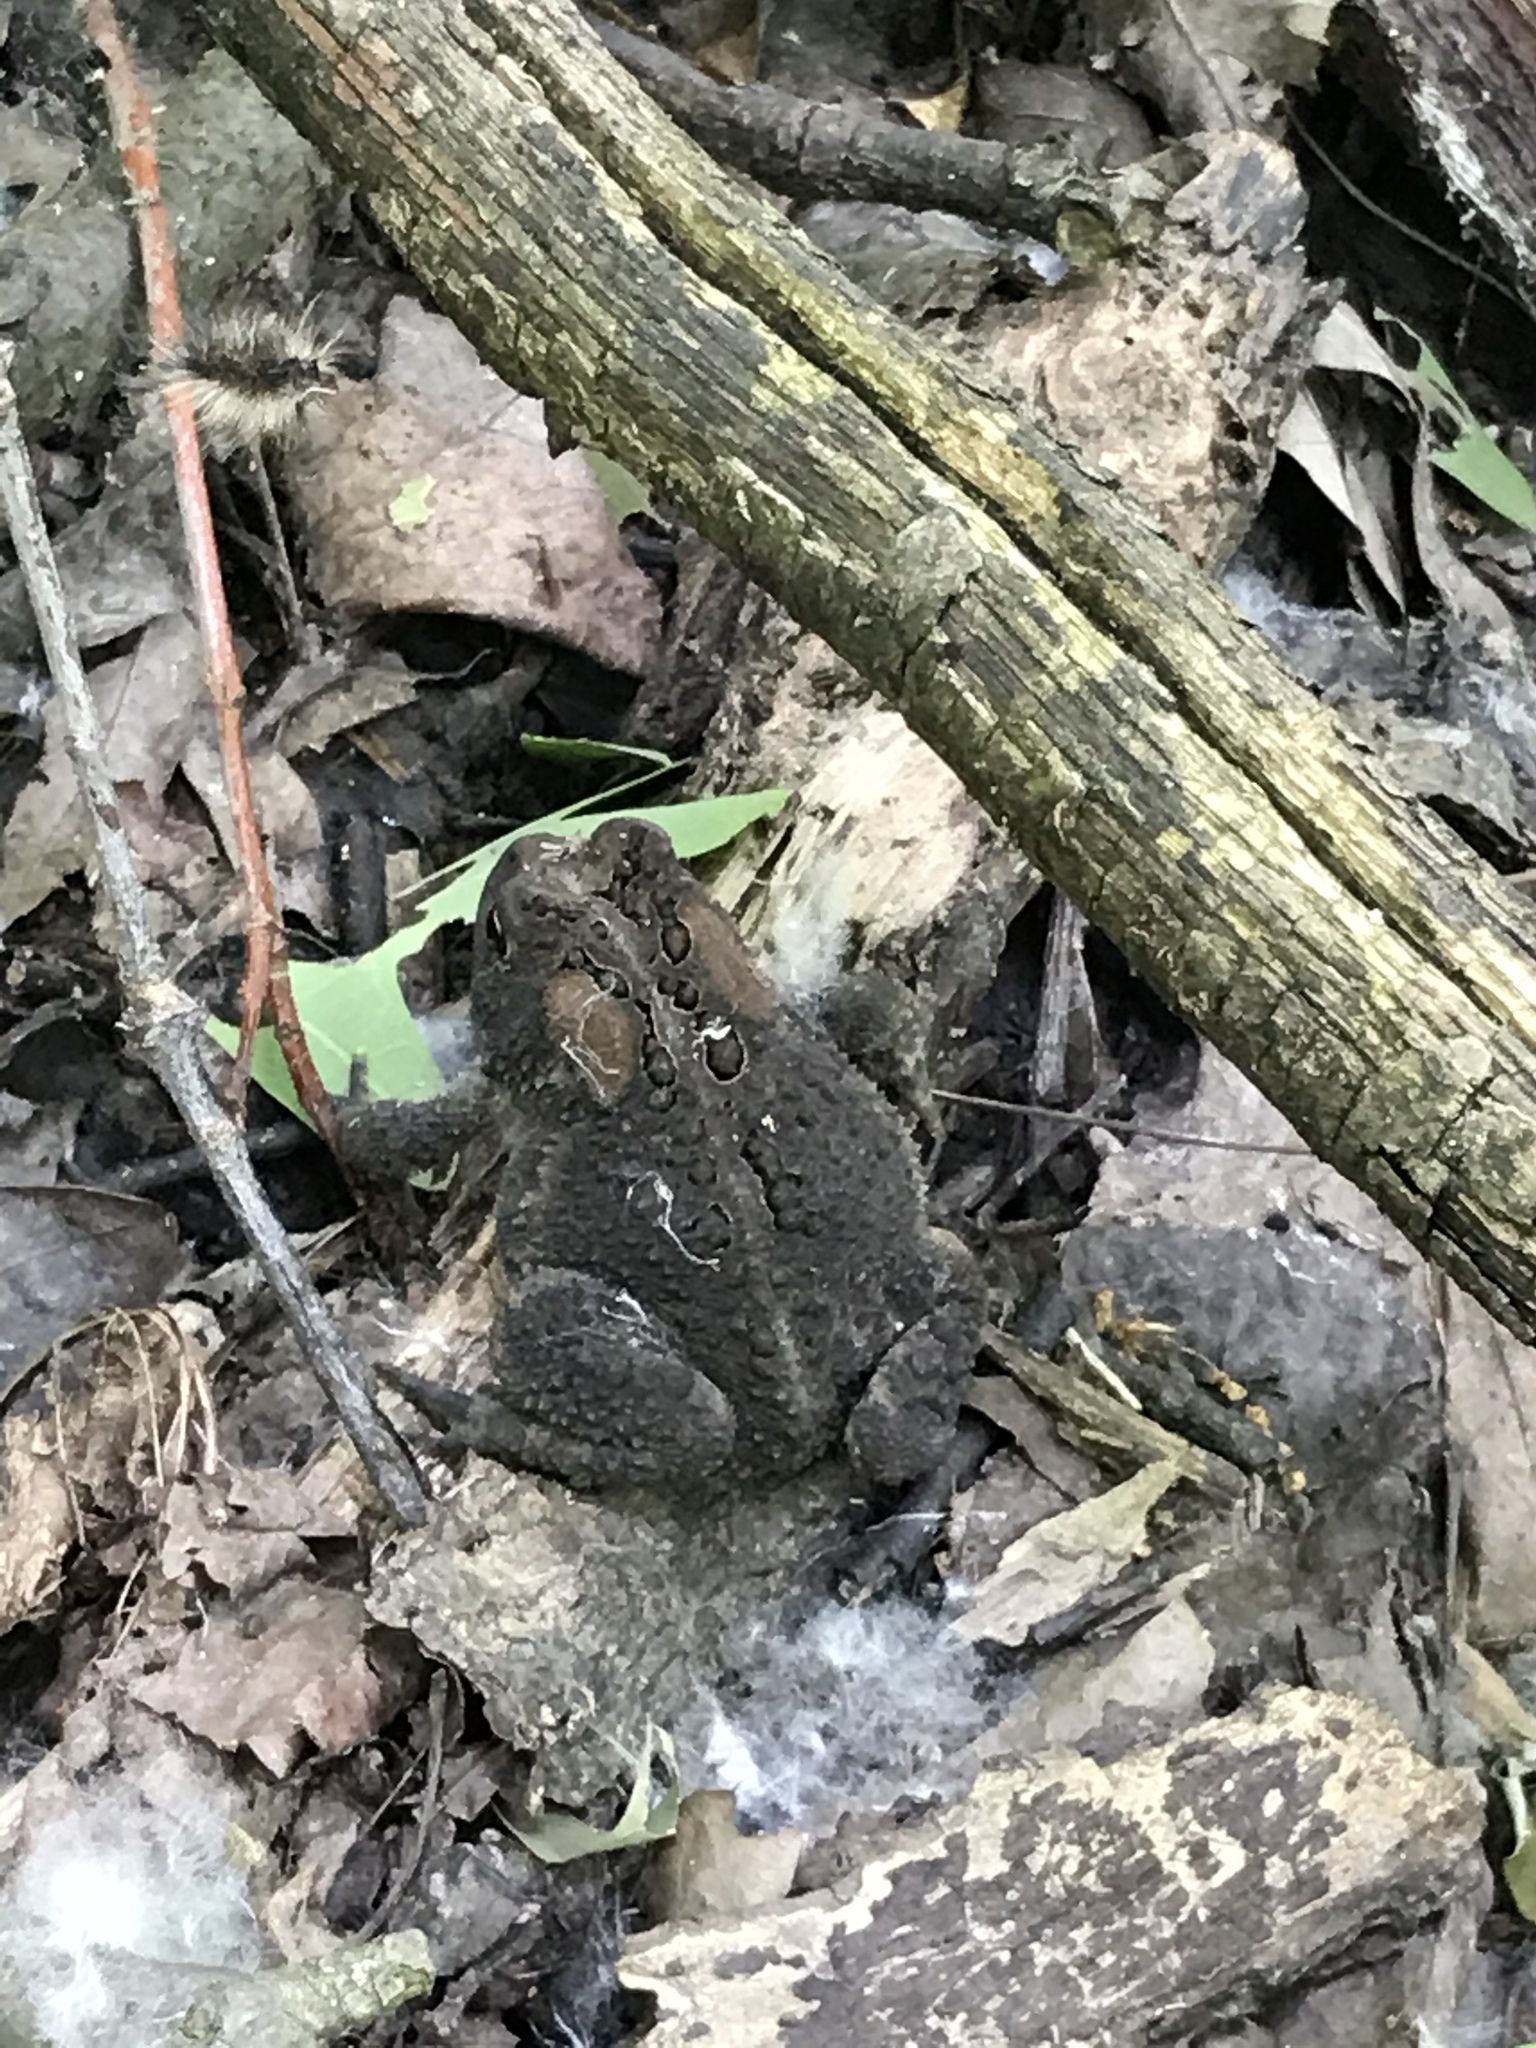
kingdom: Animalia
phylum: Chordata
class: Amphibia
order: Anura
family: Bufonidae
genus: Anaxyrus
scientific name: Anaxyrus americanus
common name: American toad
